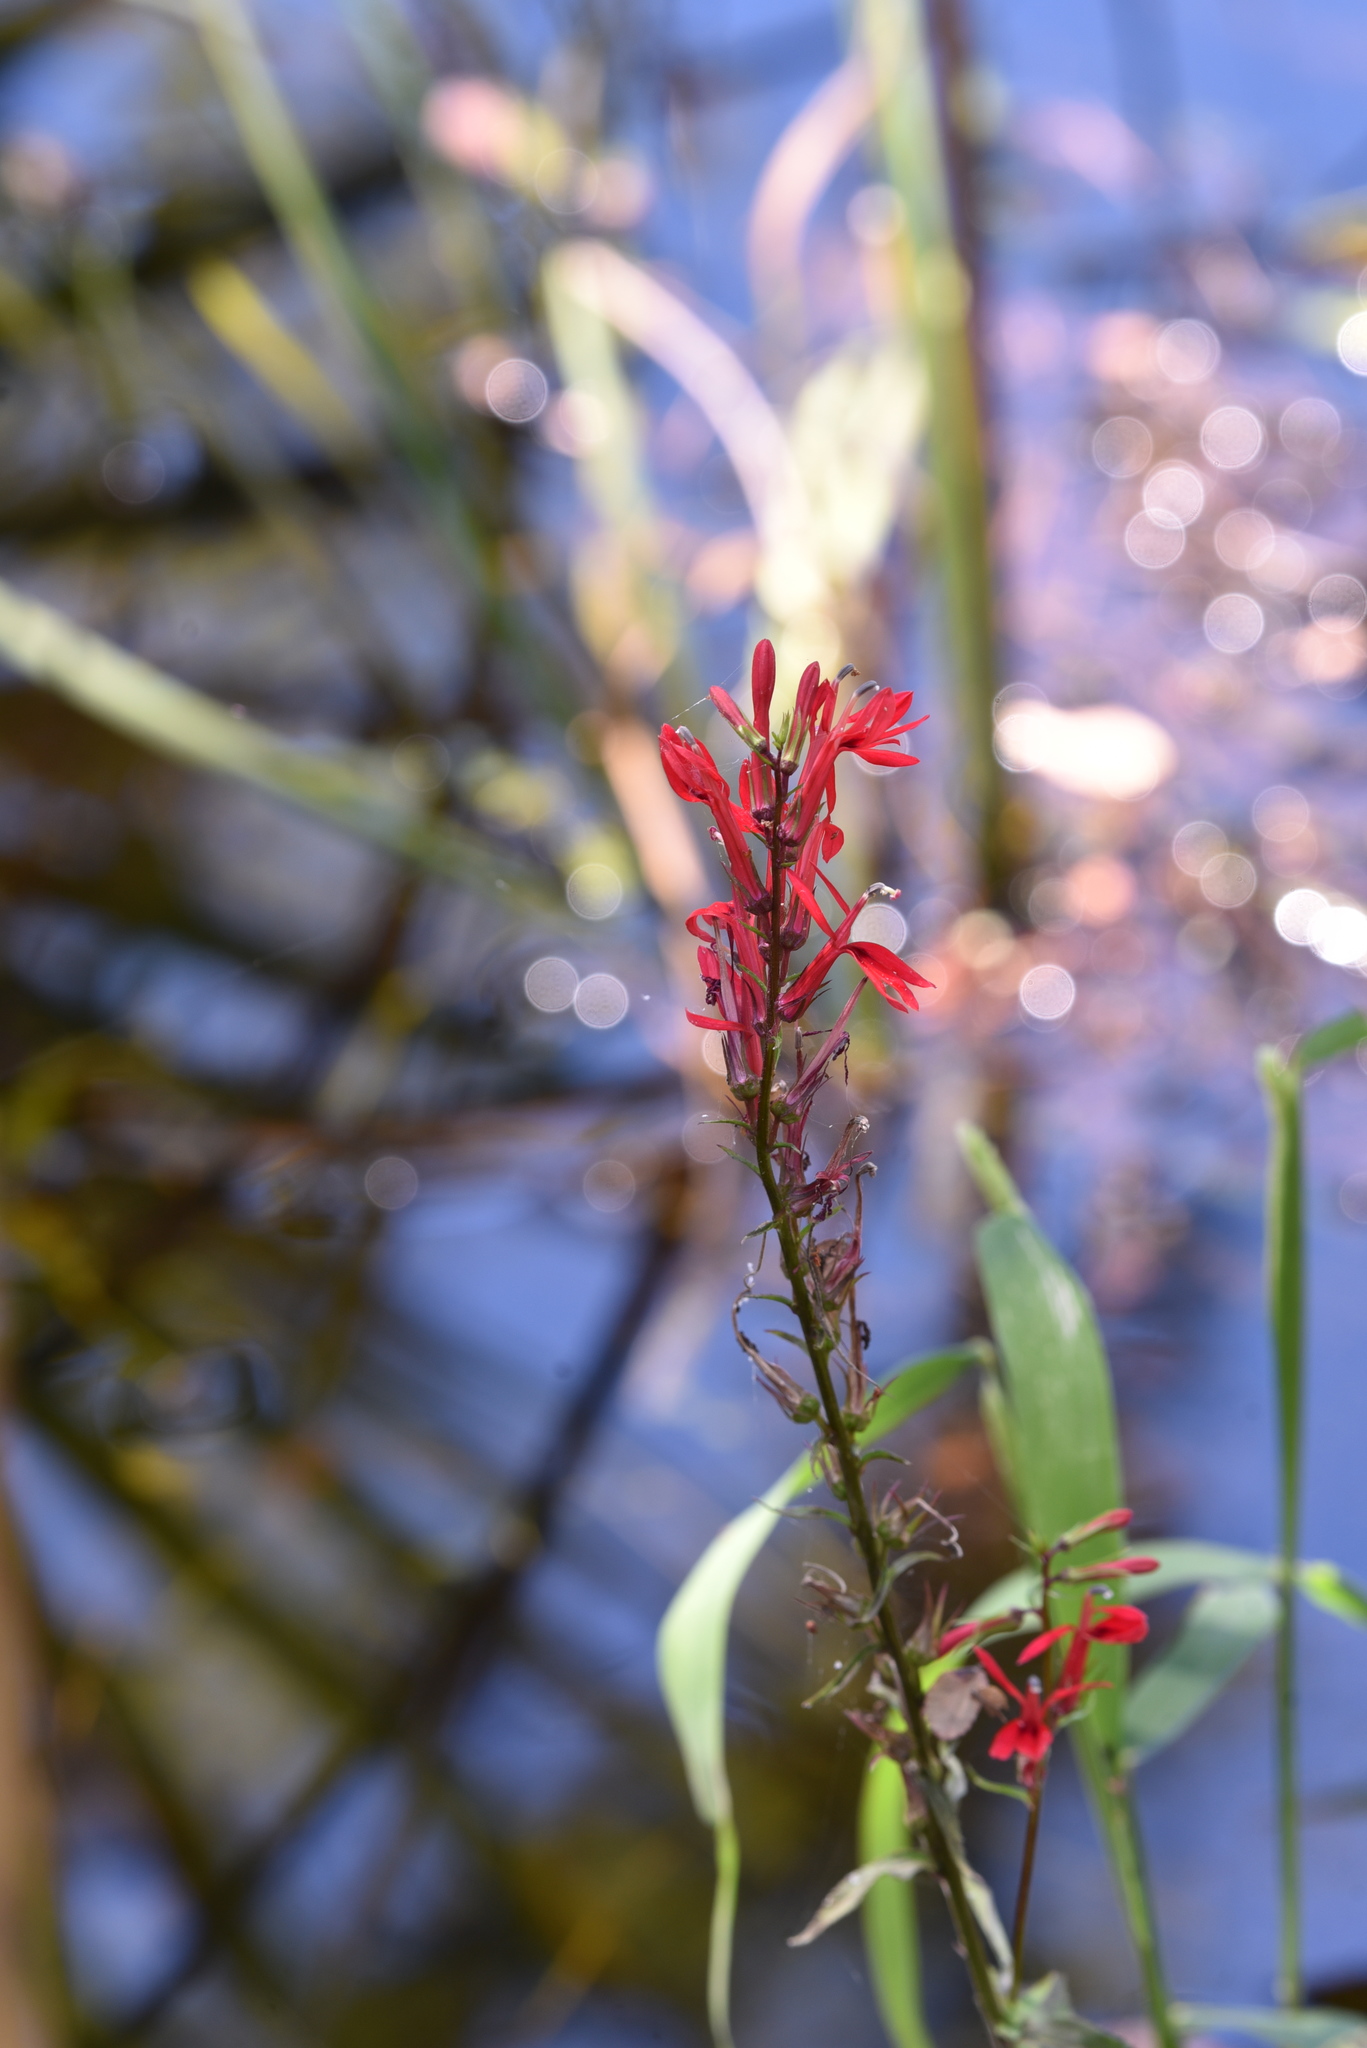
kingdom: Plantae
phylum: Tracheophyta
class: Magnoliopsida
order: Asterales
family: Campanulaceae
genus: Lobelia
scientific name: Lobelia cardinalis
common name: Cardinal flower
